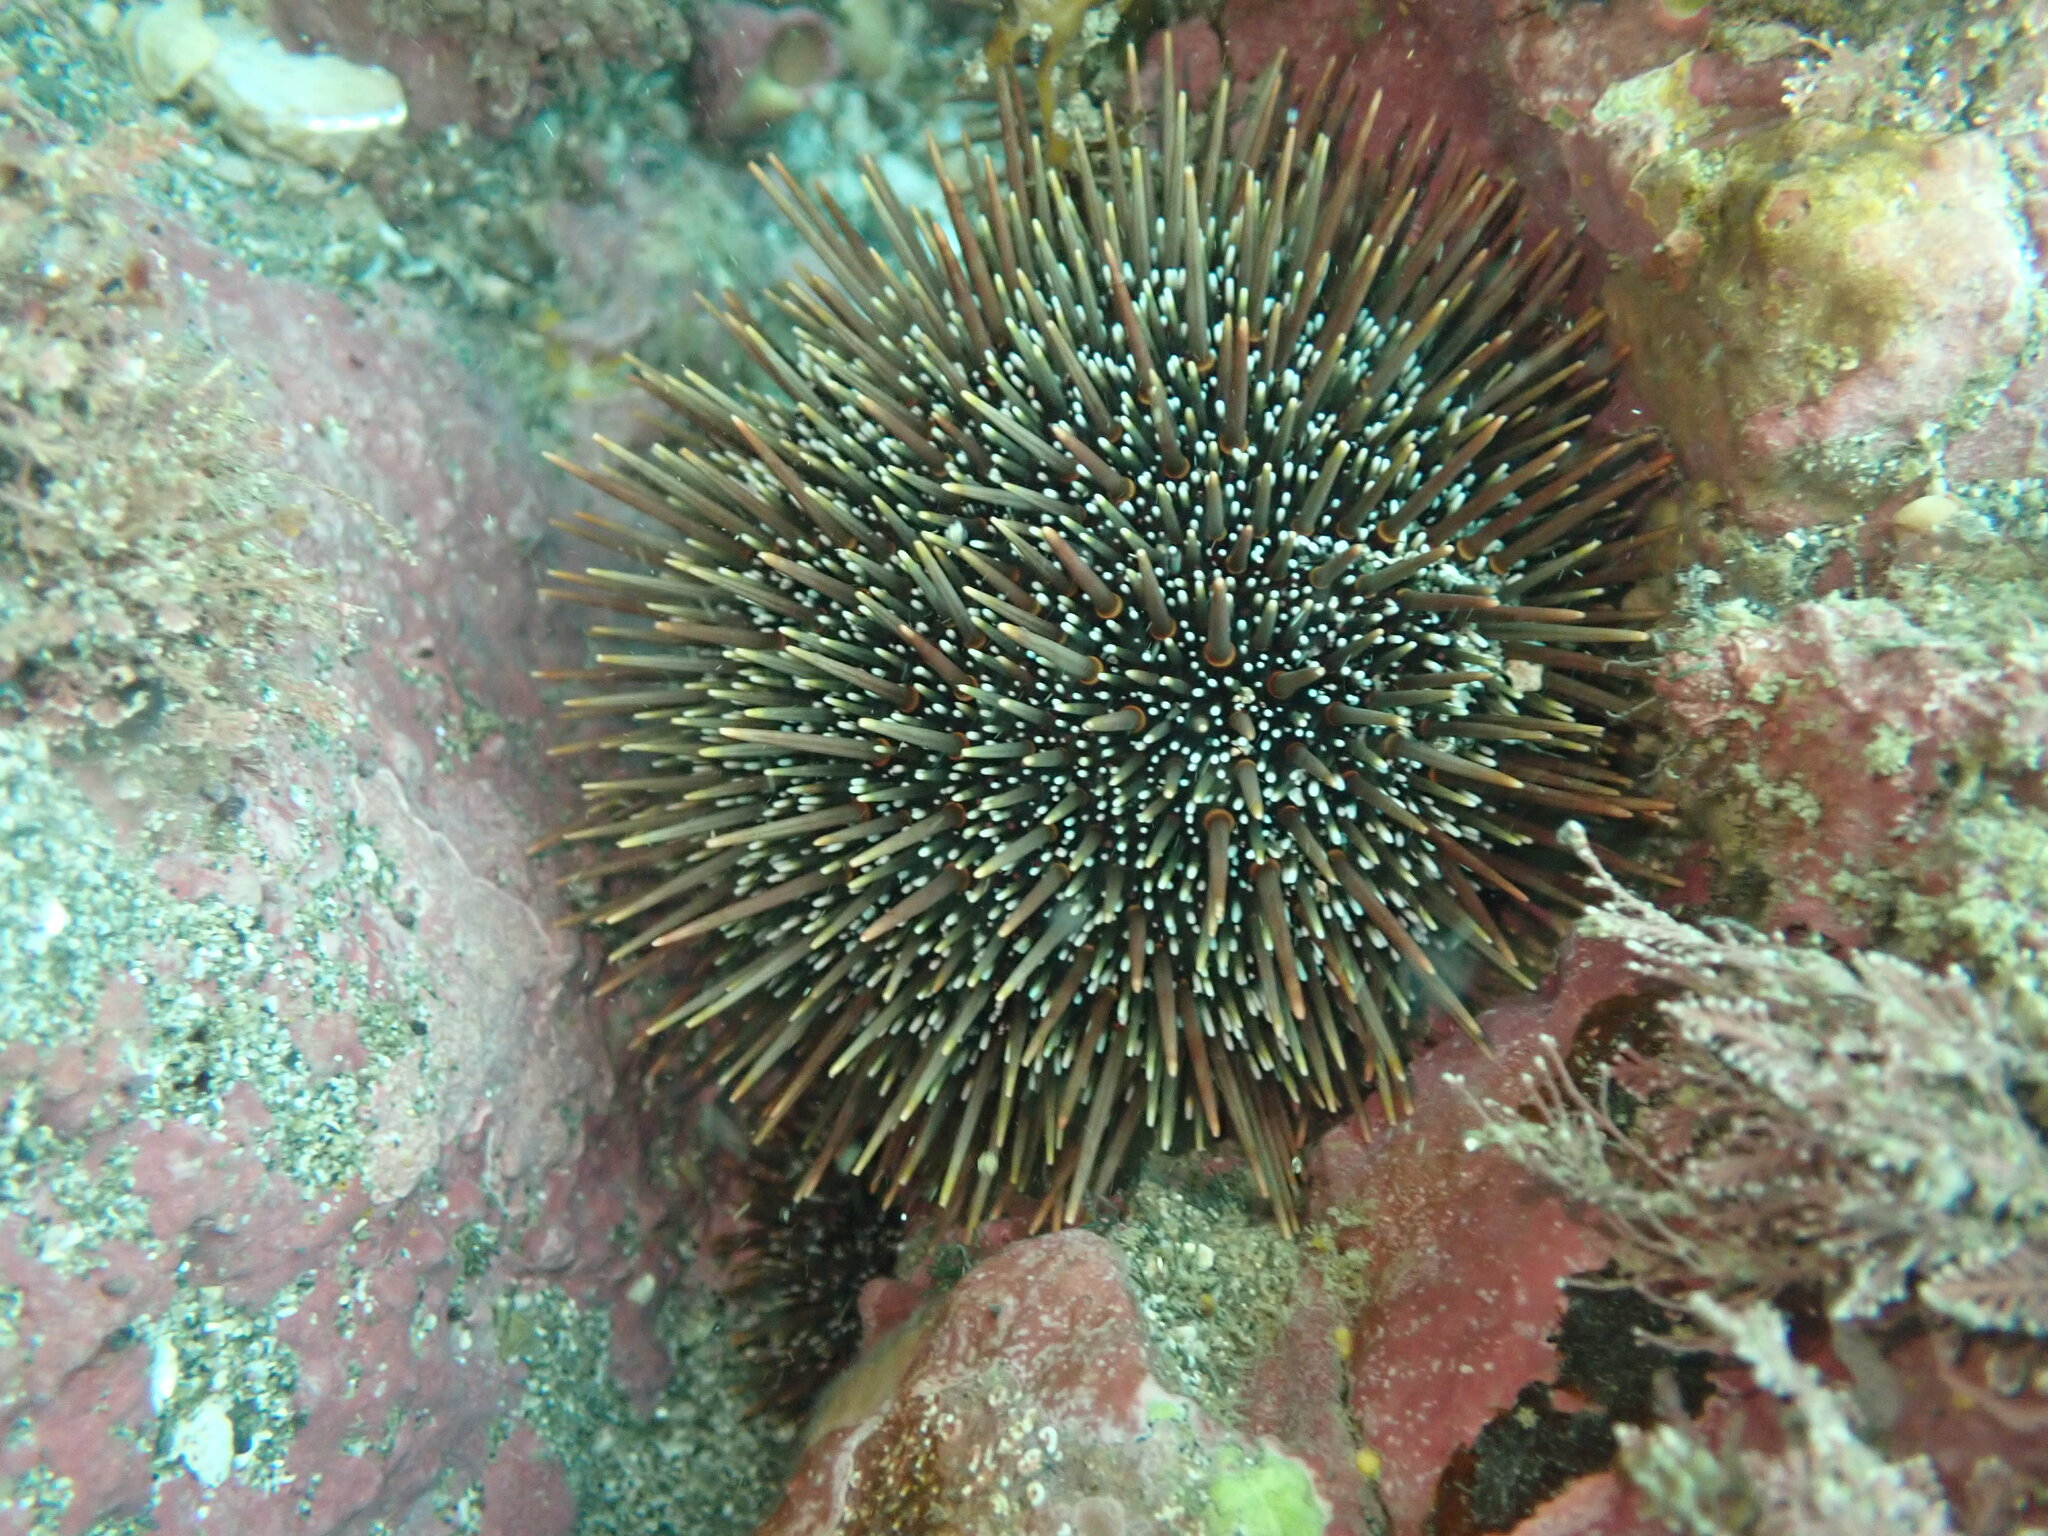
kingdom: Animalia
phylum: Echinodermata
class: Echinoidea
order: Camarodonta
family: Echinometridae
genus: Evechinus
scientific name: Evechinus chloroticus
